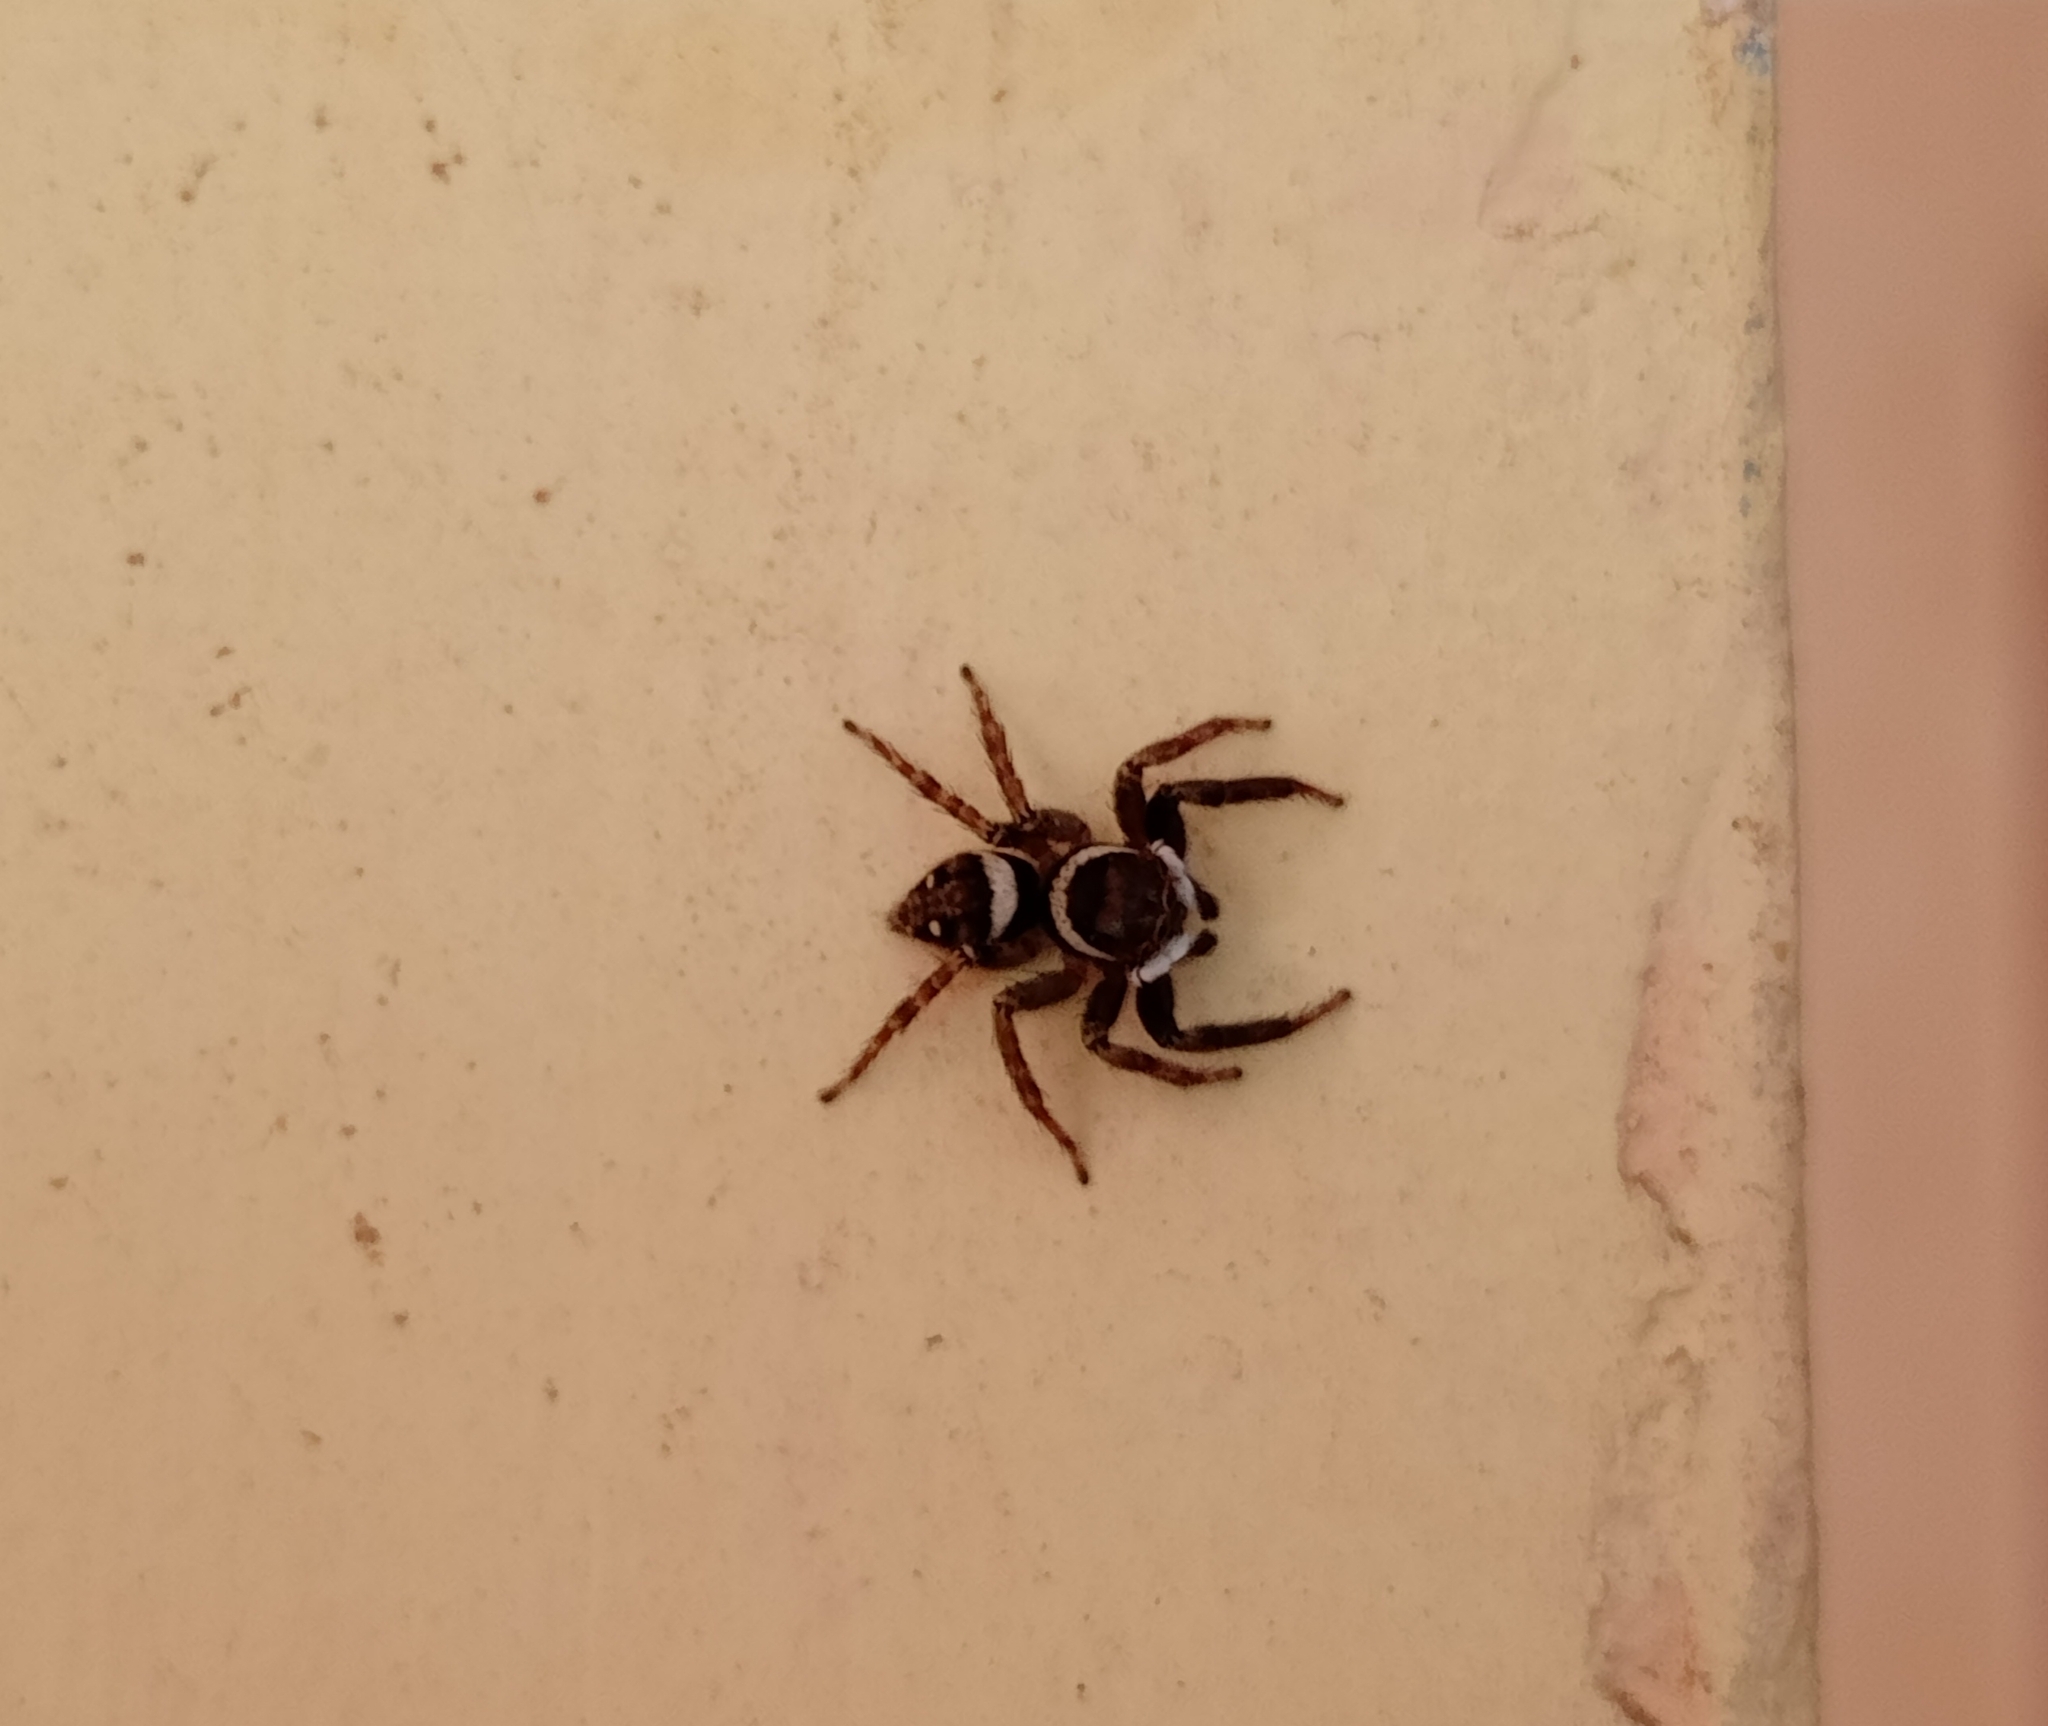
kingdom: Animalia
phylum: Arthropoda
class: Arachnida
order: Araneae
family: Salticidae
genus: Hasarius
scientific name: Hasarius adansoni
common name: Jumping spider
